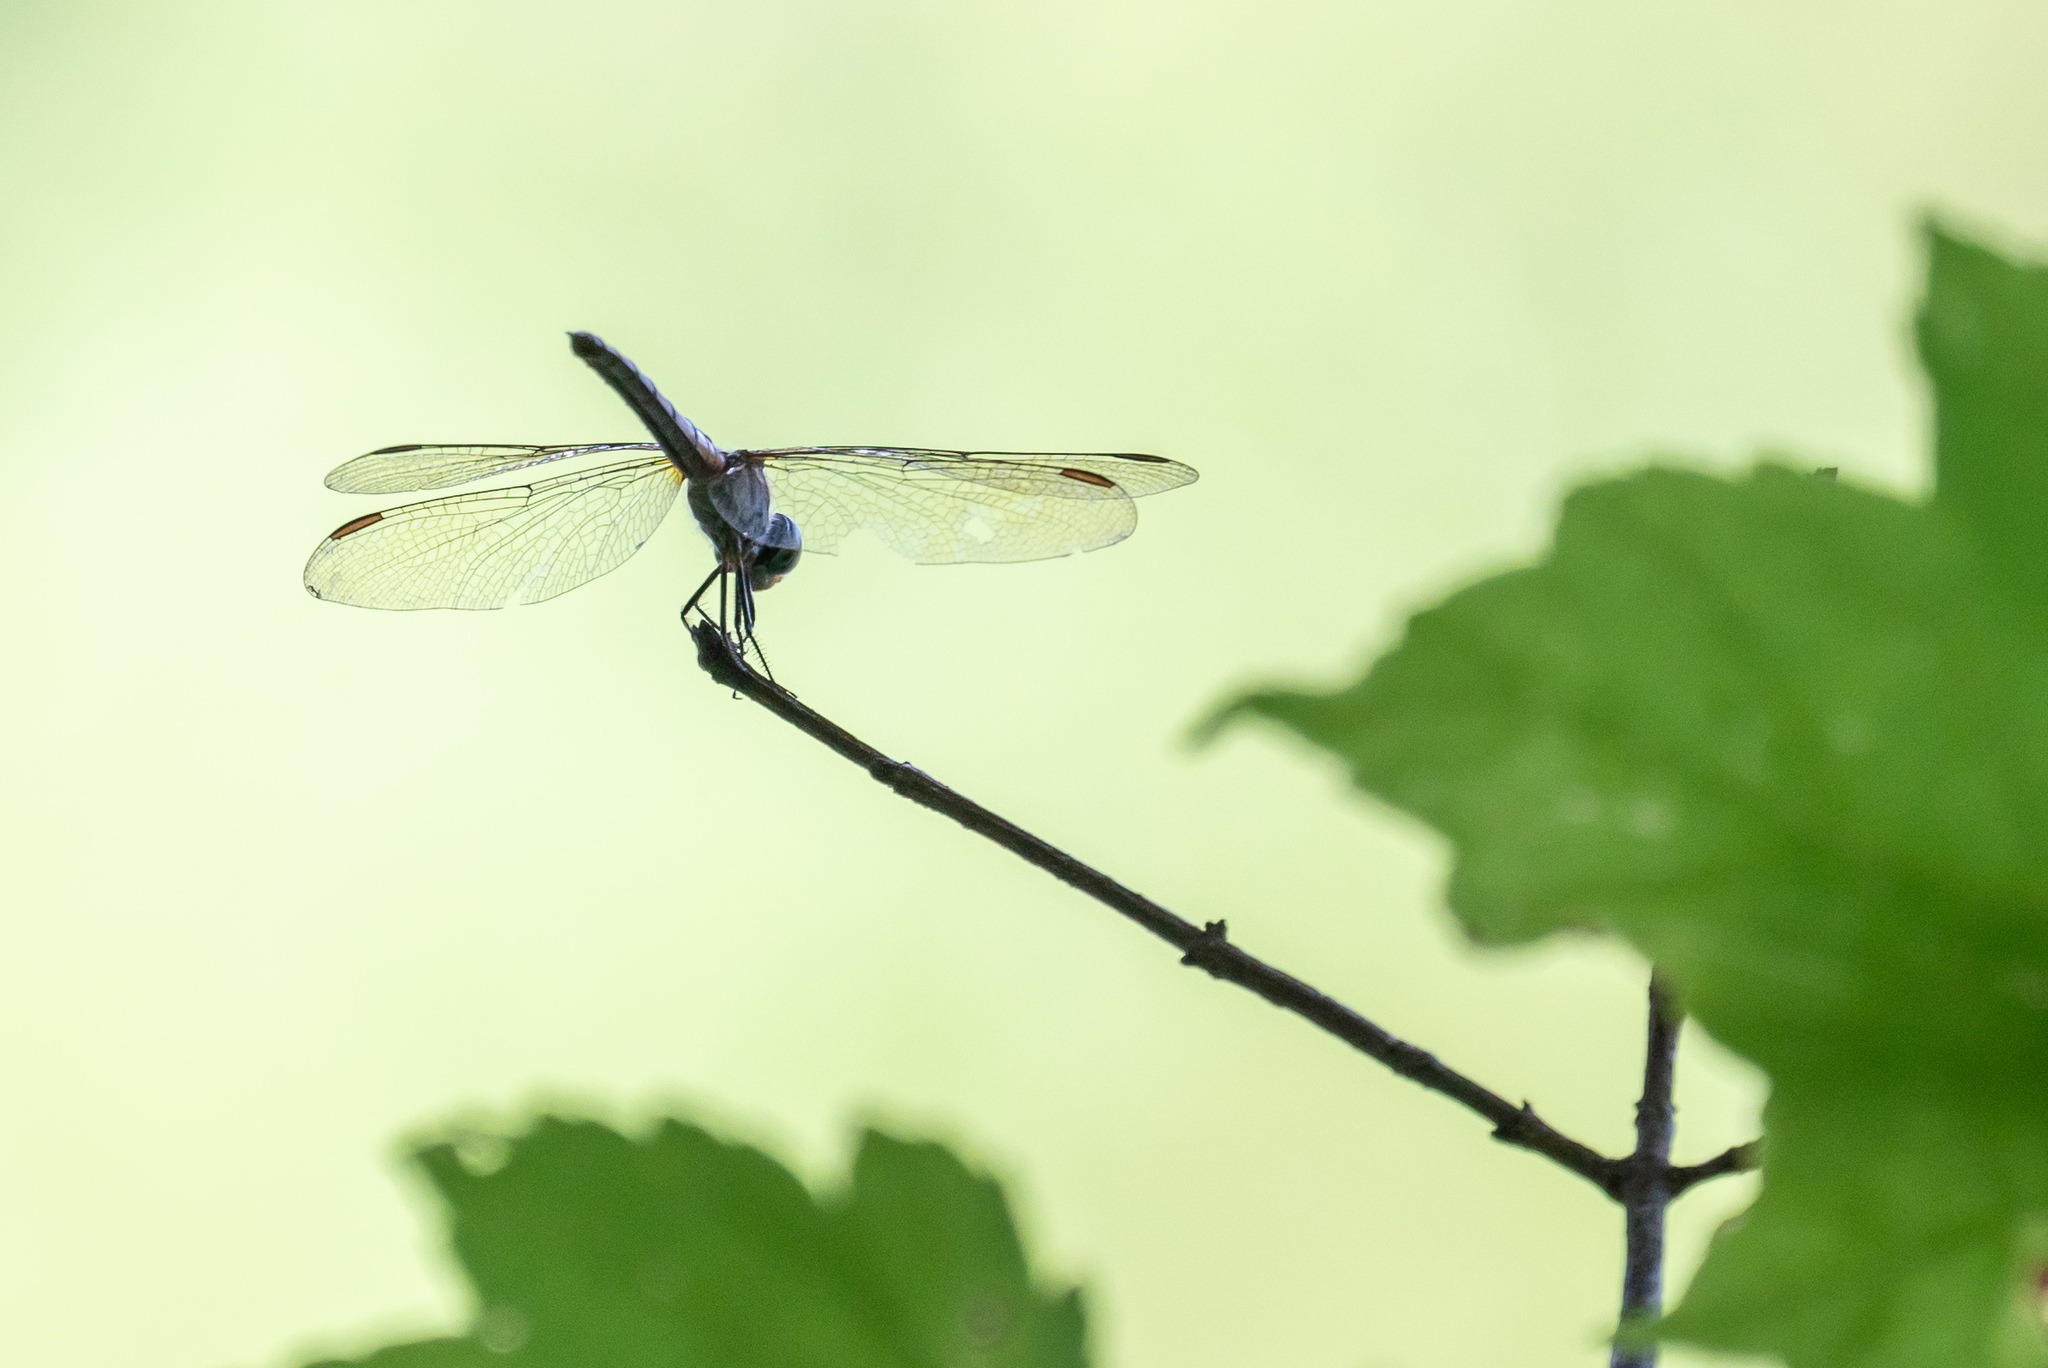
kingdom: Animalia
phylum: Arthropoda
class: Insecta
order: Odonata
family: Libellulidae
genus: Pachydiplax
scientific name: Pachydiplax longipennis
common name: Blue dasher
